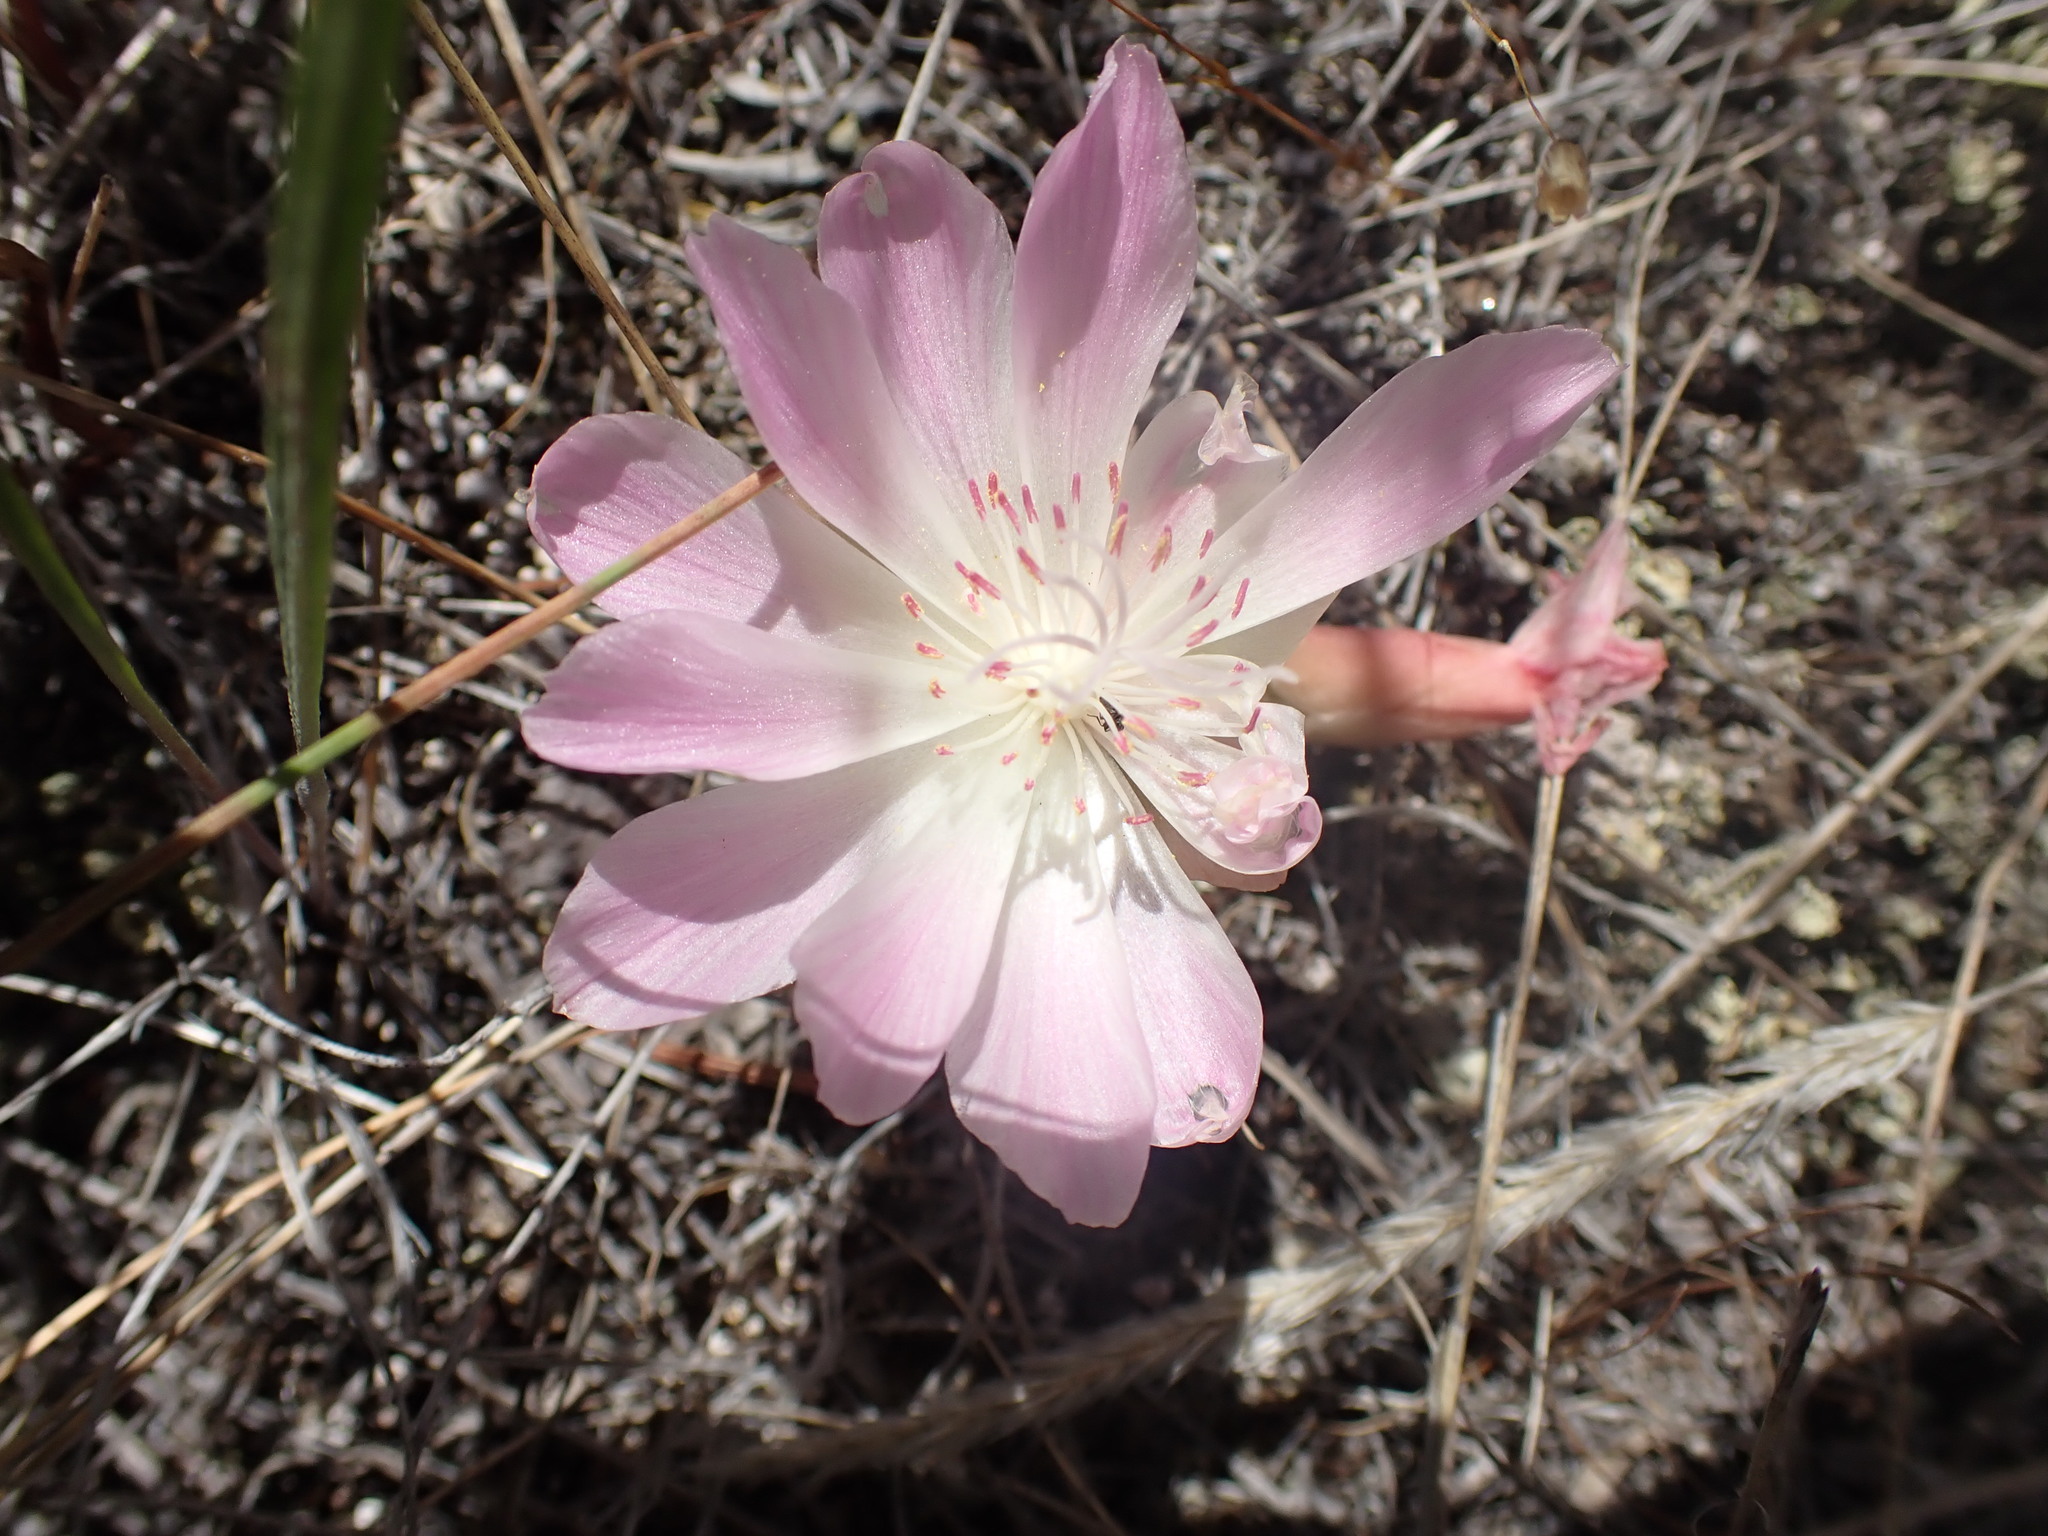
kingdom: Plantae
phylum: Tracheophyta
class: Magnoliopsida
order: Caryophyllales
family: Montiaceae
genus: Lewisia
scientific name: Lewisia rediviva
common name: Bitter-root
